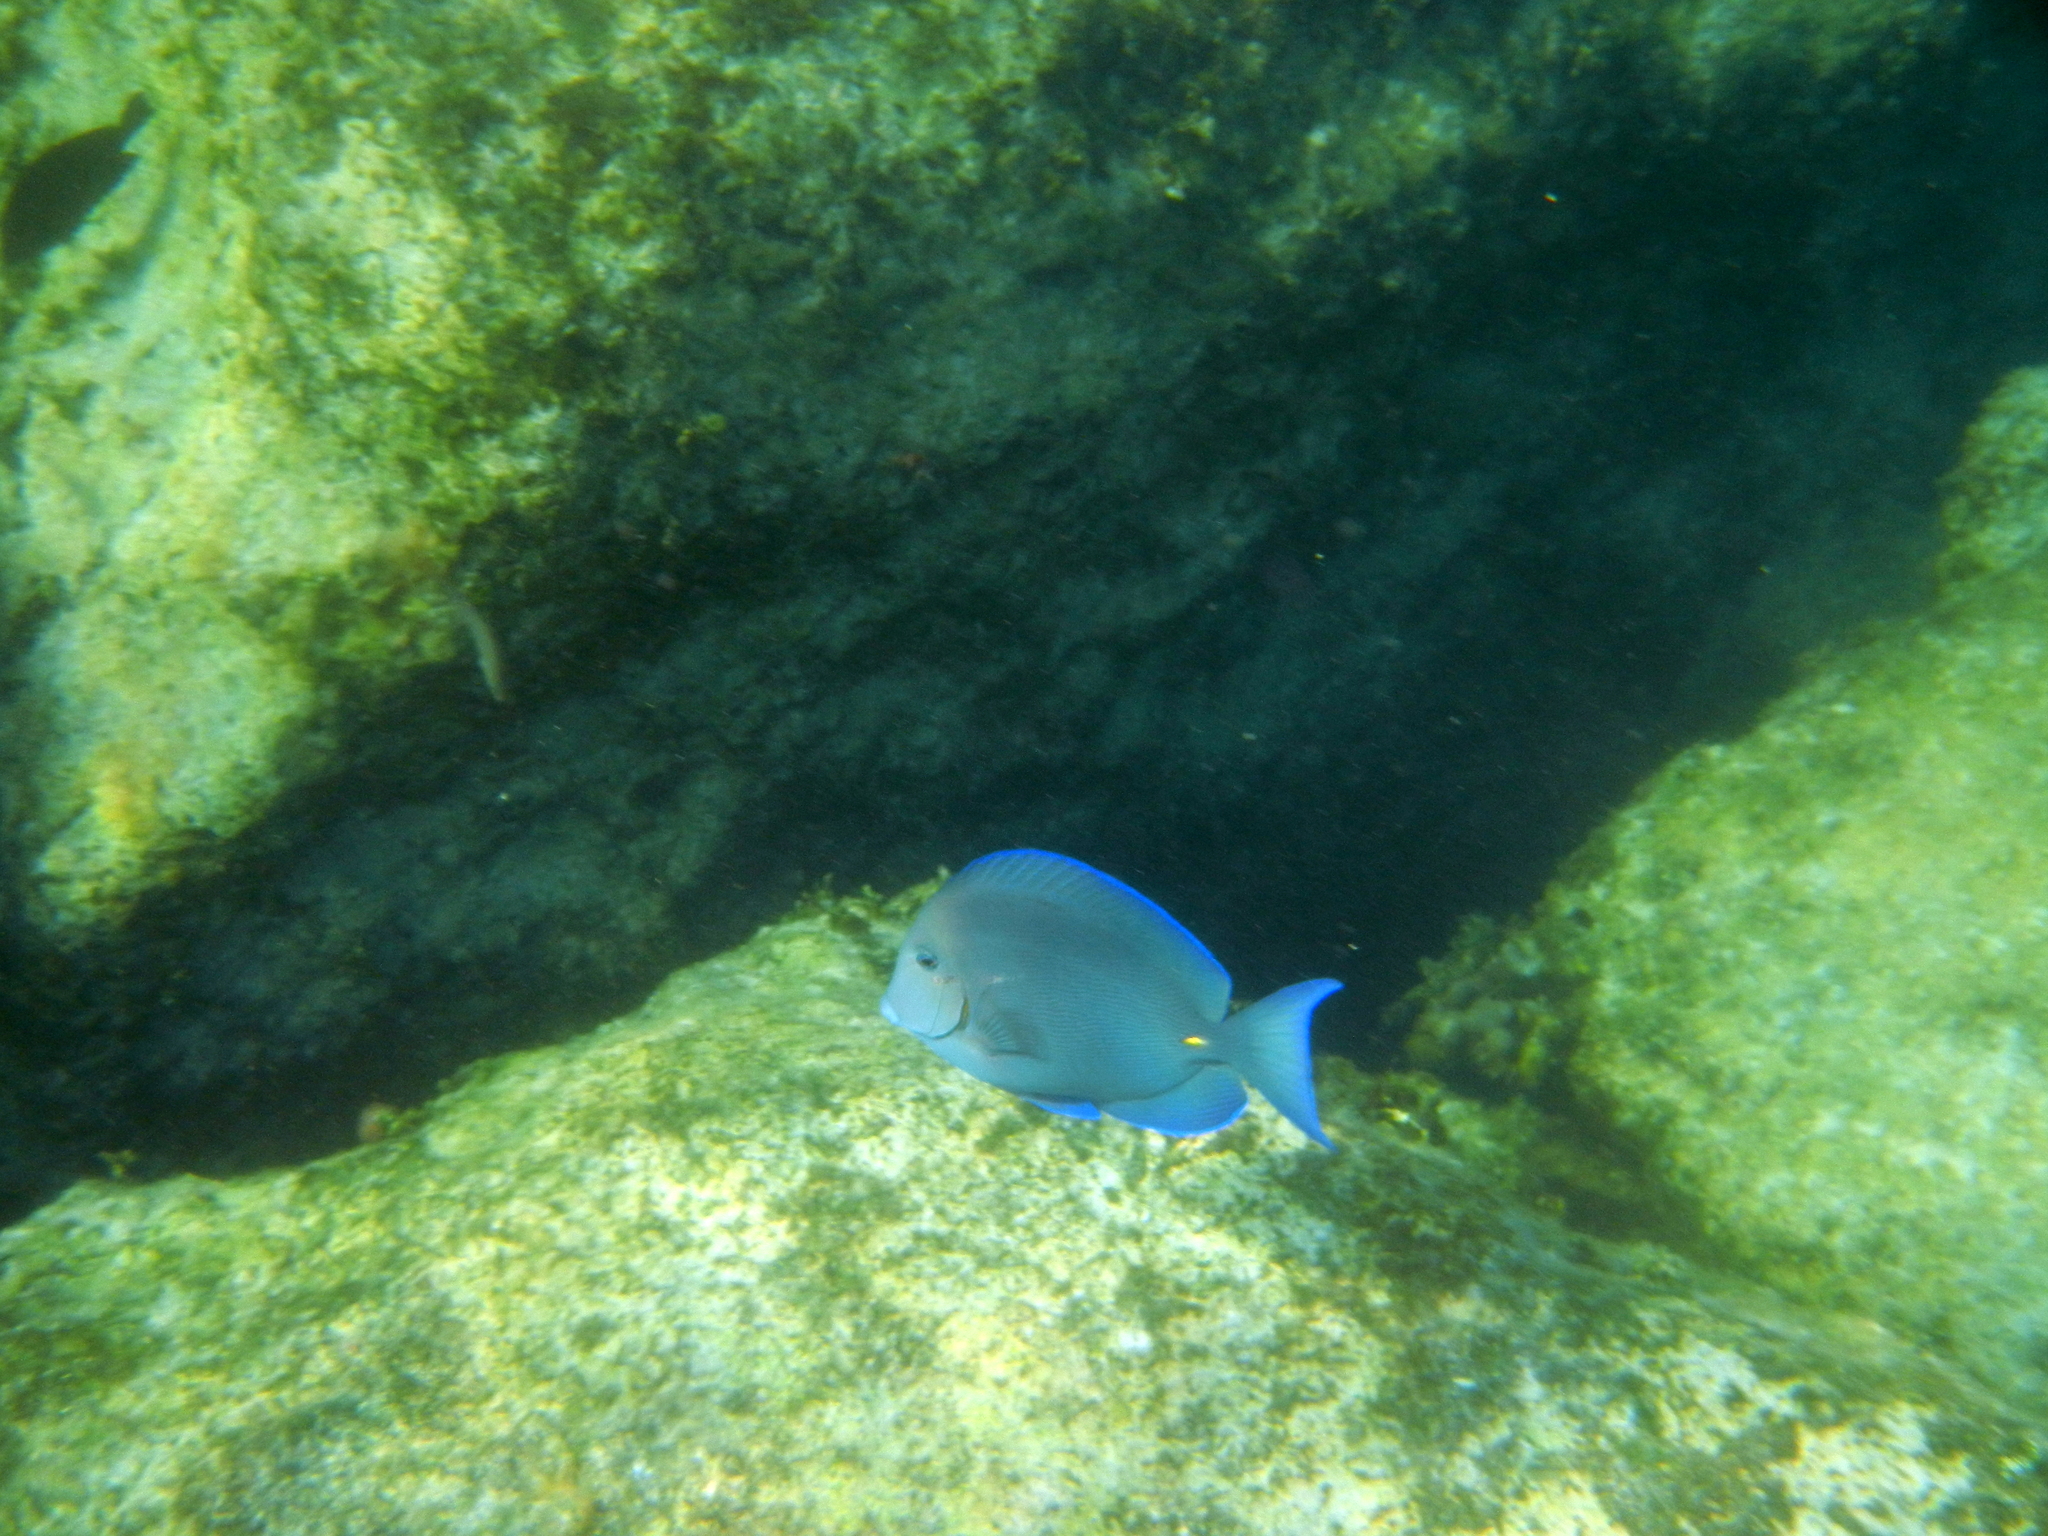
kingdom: Animalia
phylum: Chordata
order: Perciformes
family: Acanthuridae
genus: Acanthurus
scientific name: Acanthurus coeruleus
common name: Blue tang
